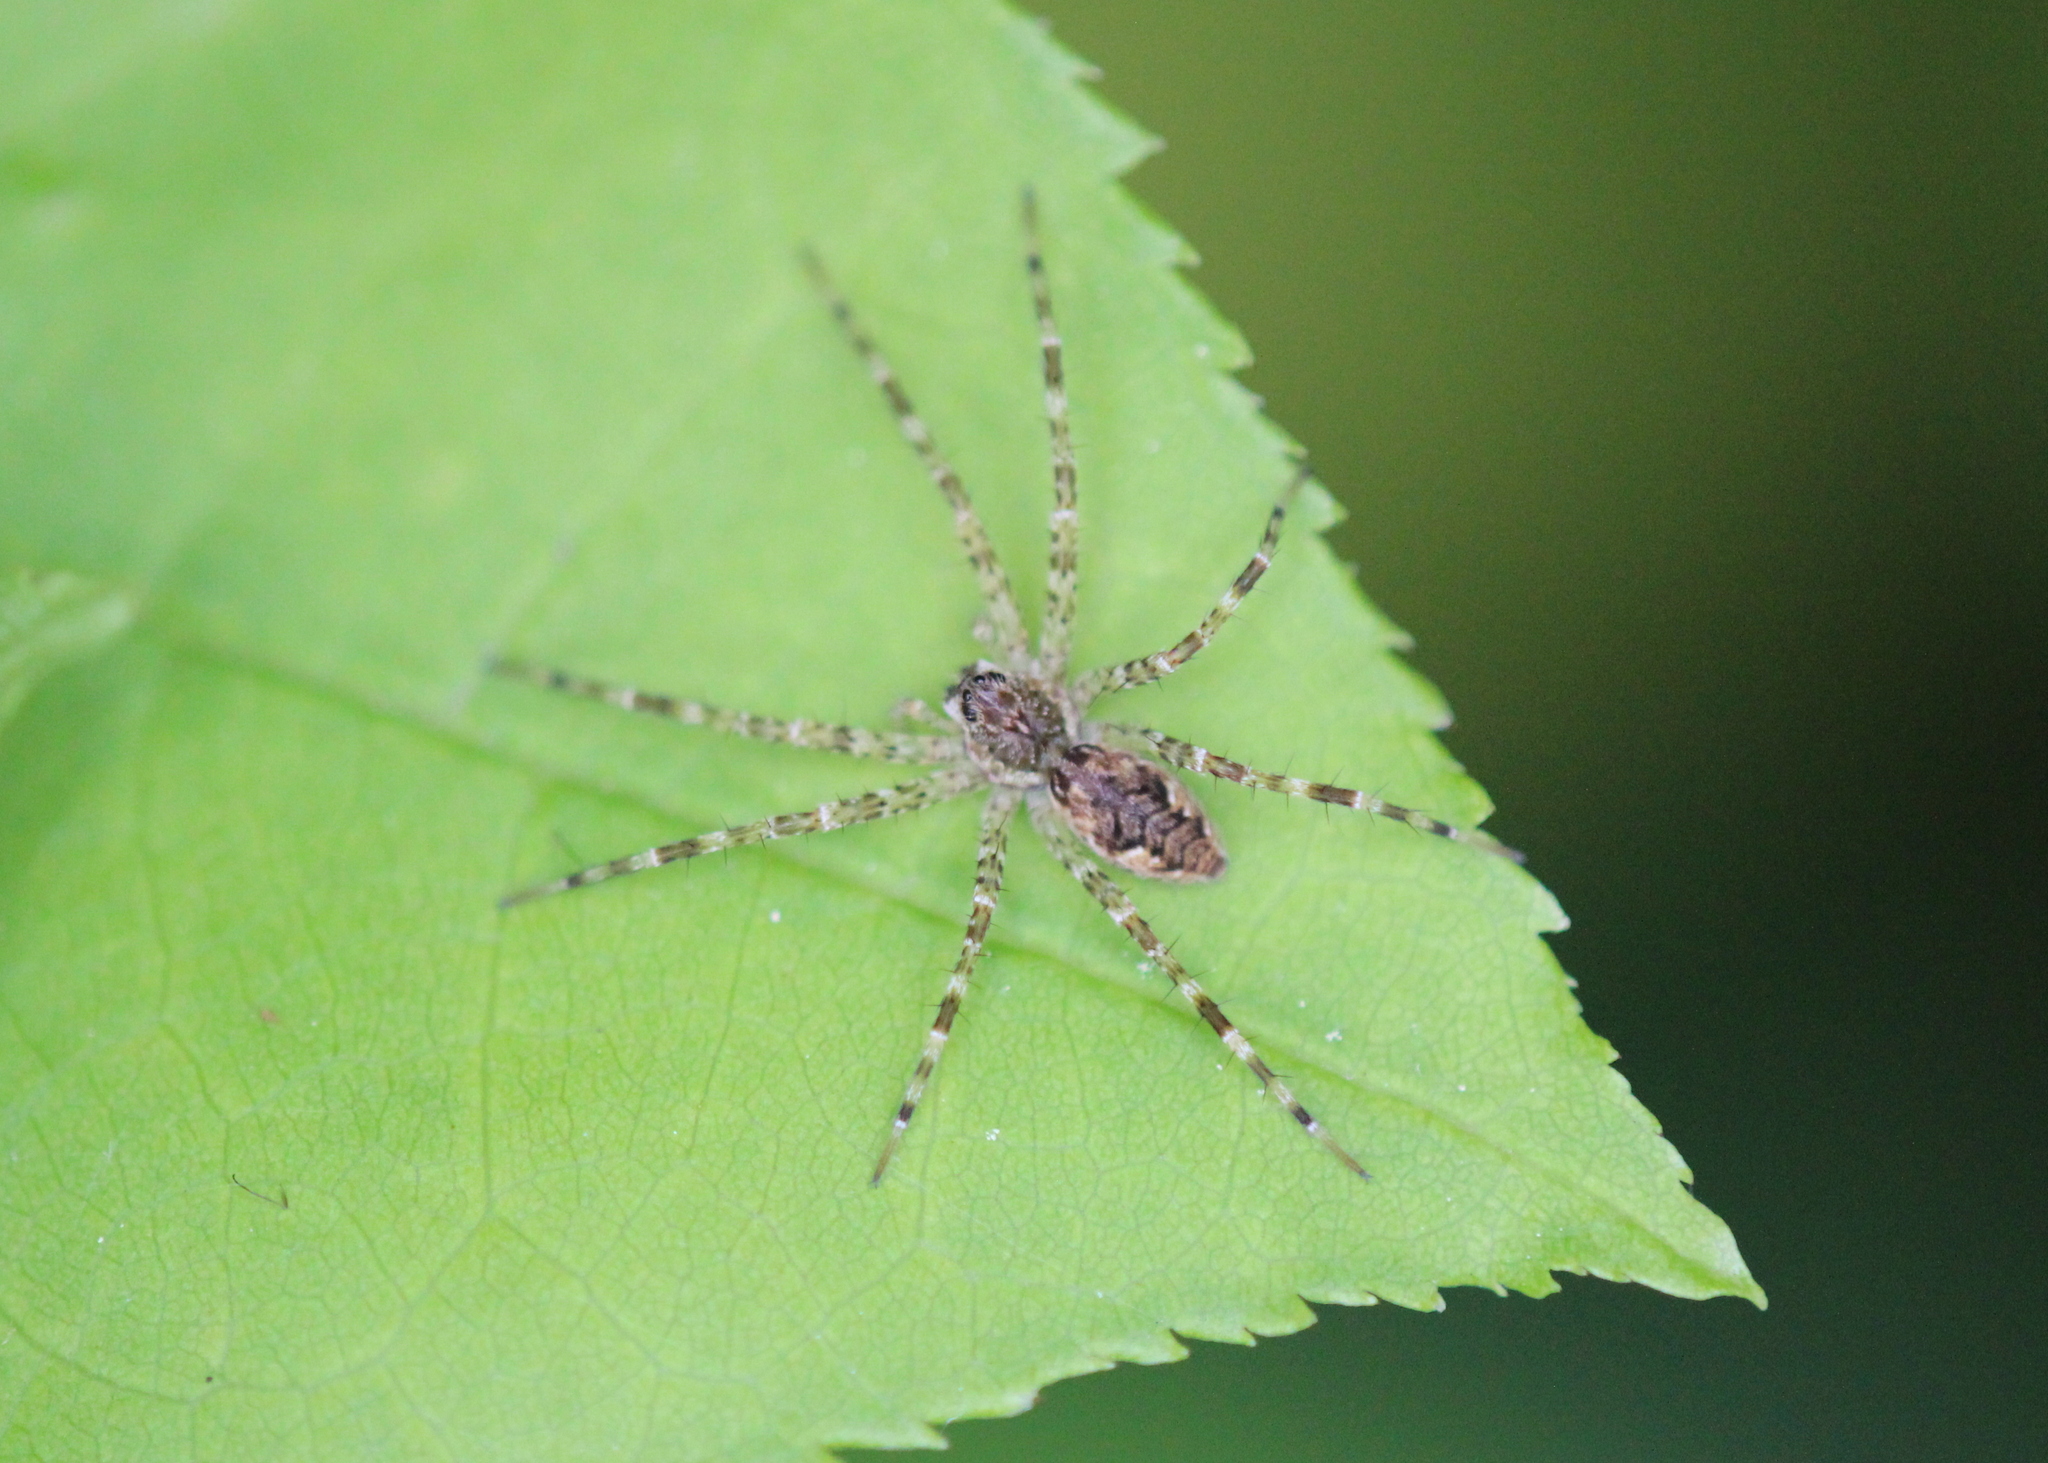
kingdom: Animalia
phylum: Arthropoda
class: Arachnida
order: Araneae
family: Pisauridae
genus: Dolomedes
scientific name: Dolomedes tenebrosus
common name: Dark fishing spider
